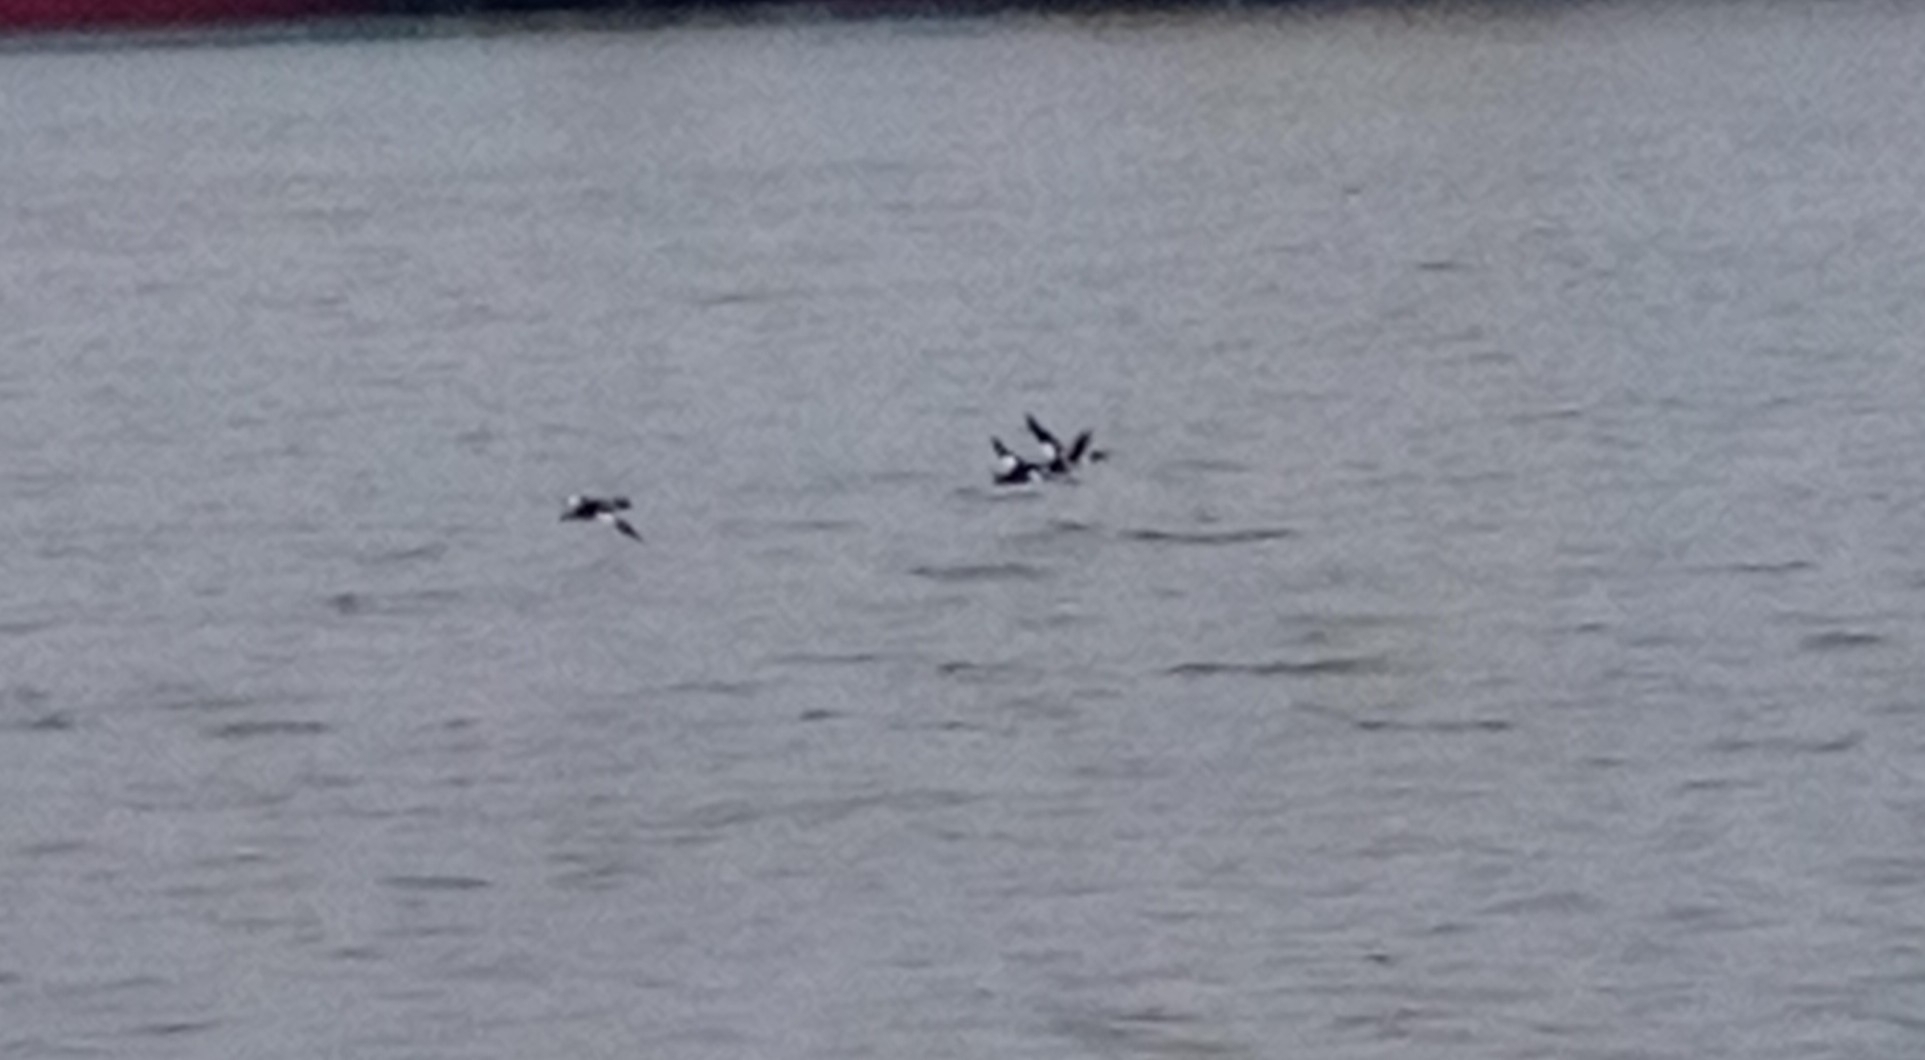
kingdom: Animalia
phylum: Chordata
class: Aves
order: Anseriformes
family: Anatidae
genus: Bucephala
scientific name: Bucephala clangula
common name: Common goldeneye
